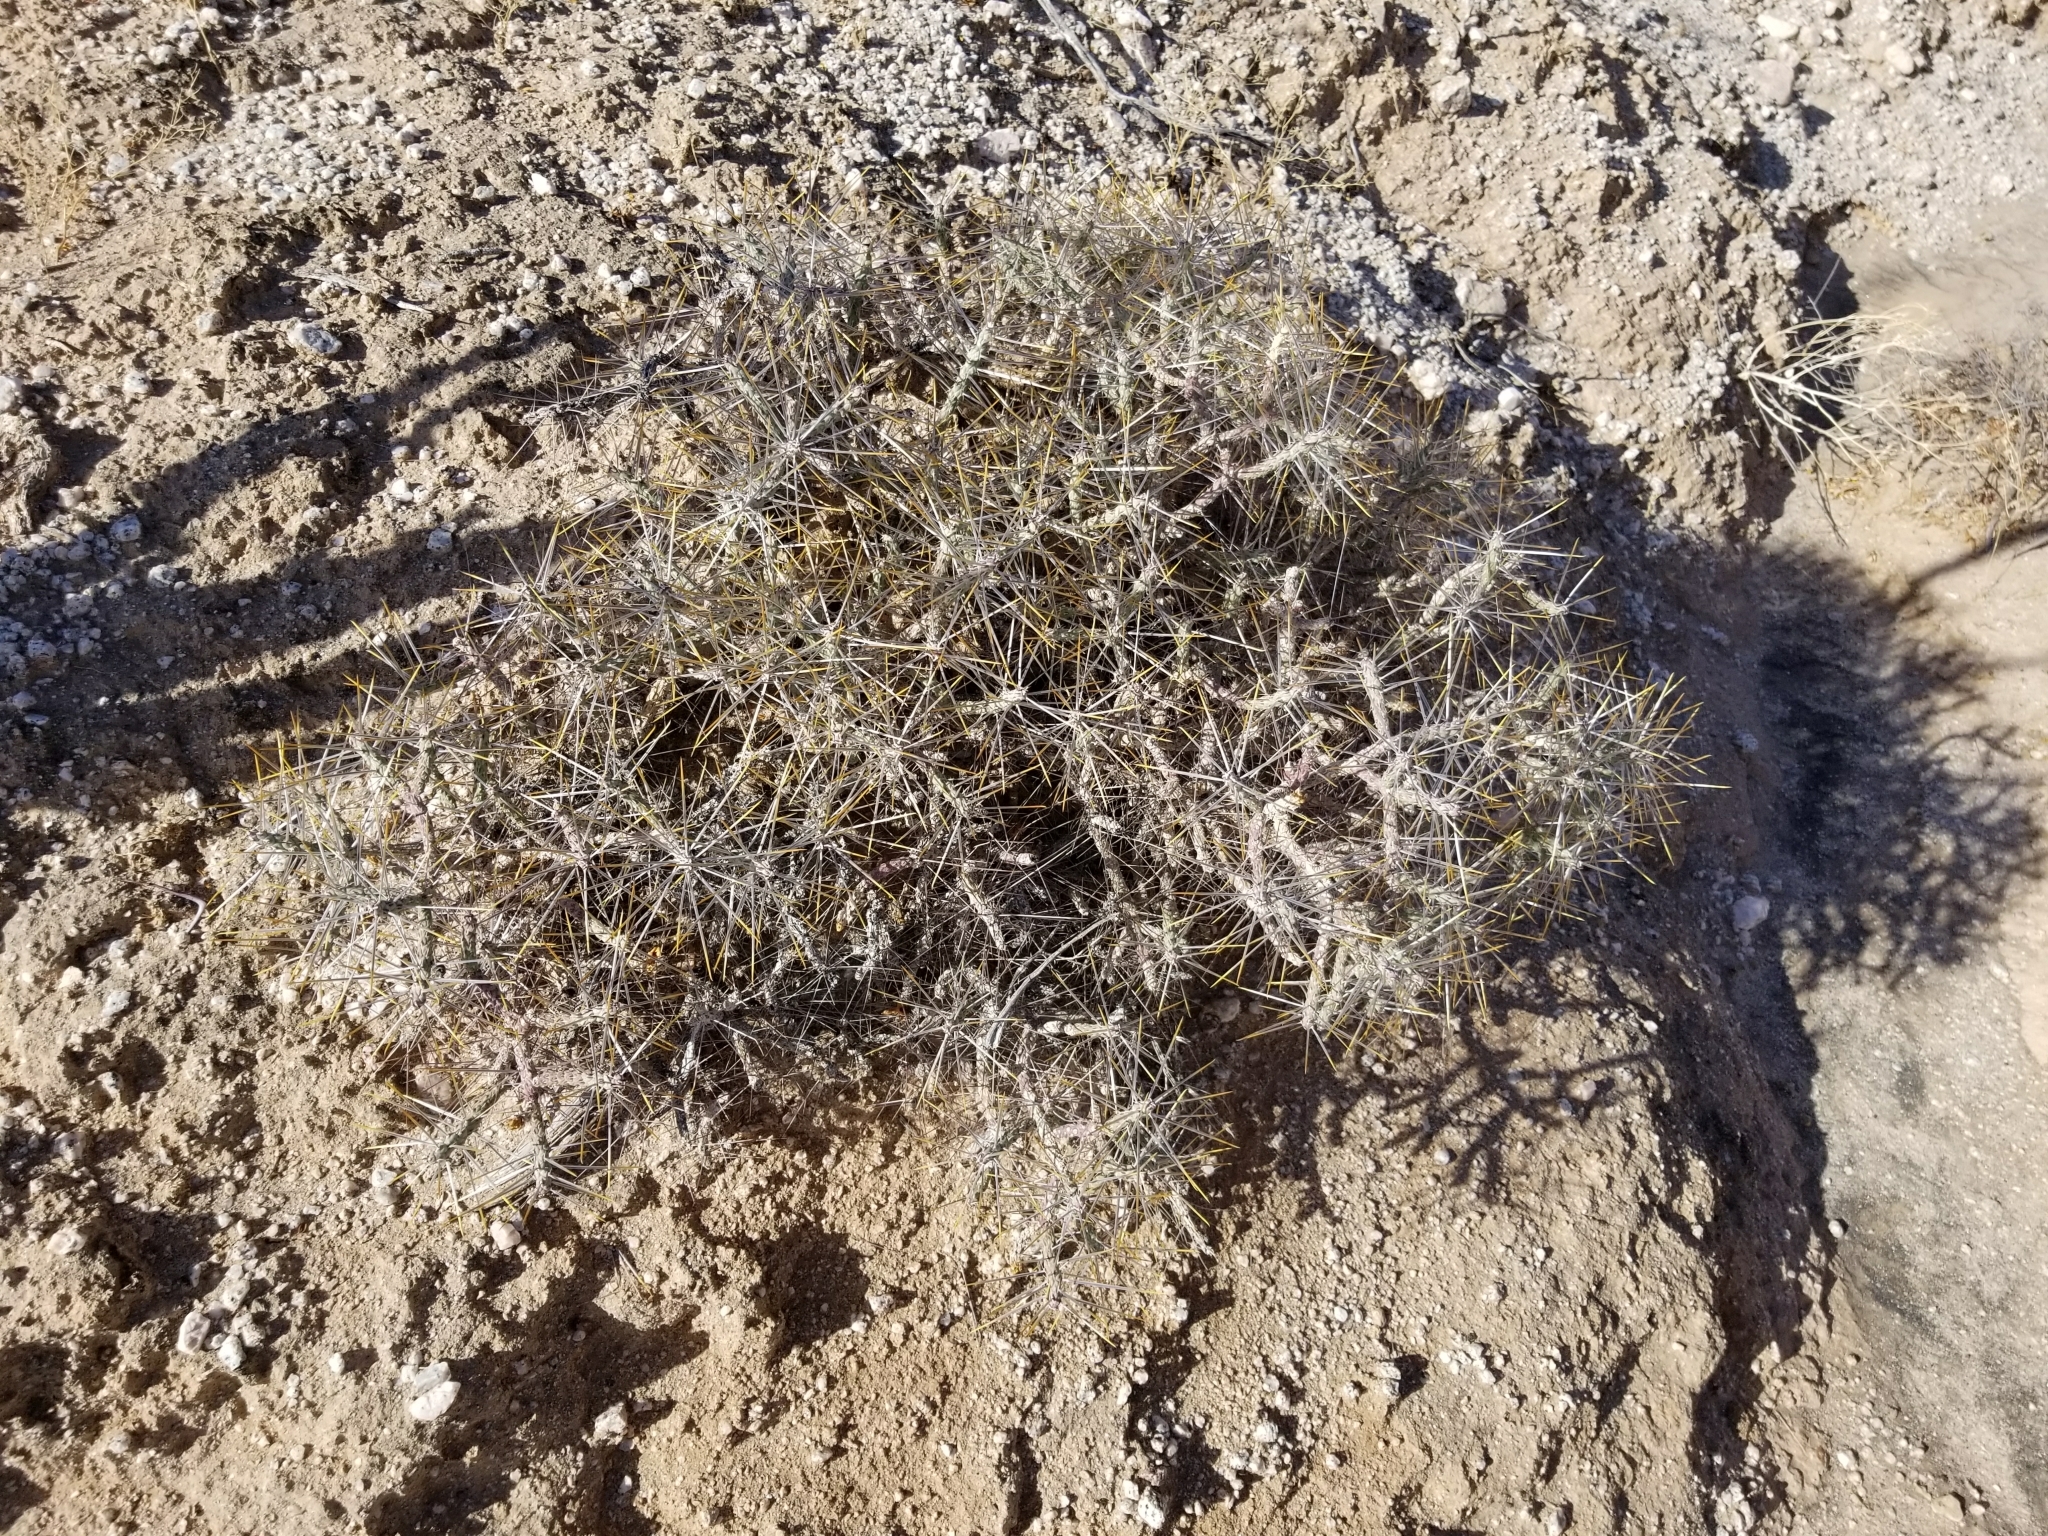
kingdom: Plantae
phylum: Tracheophyta
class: Magnoliopsida
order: Caryophyllales
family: Cactaceae
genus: Cylindropuntia
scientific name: Cylindropuntia ramosissima
